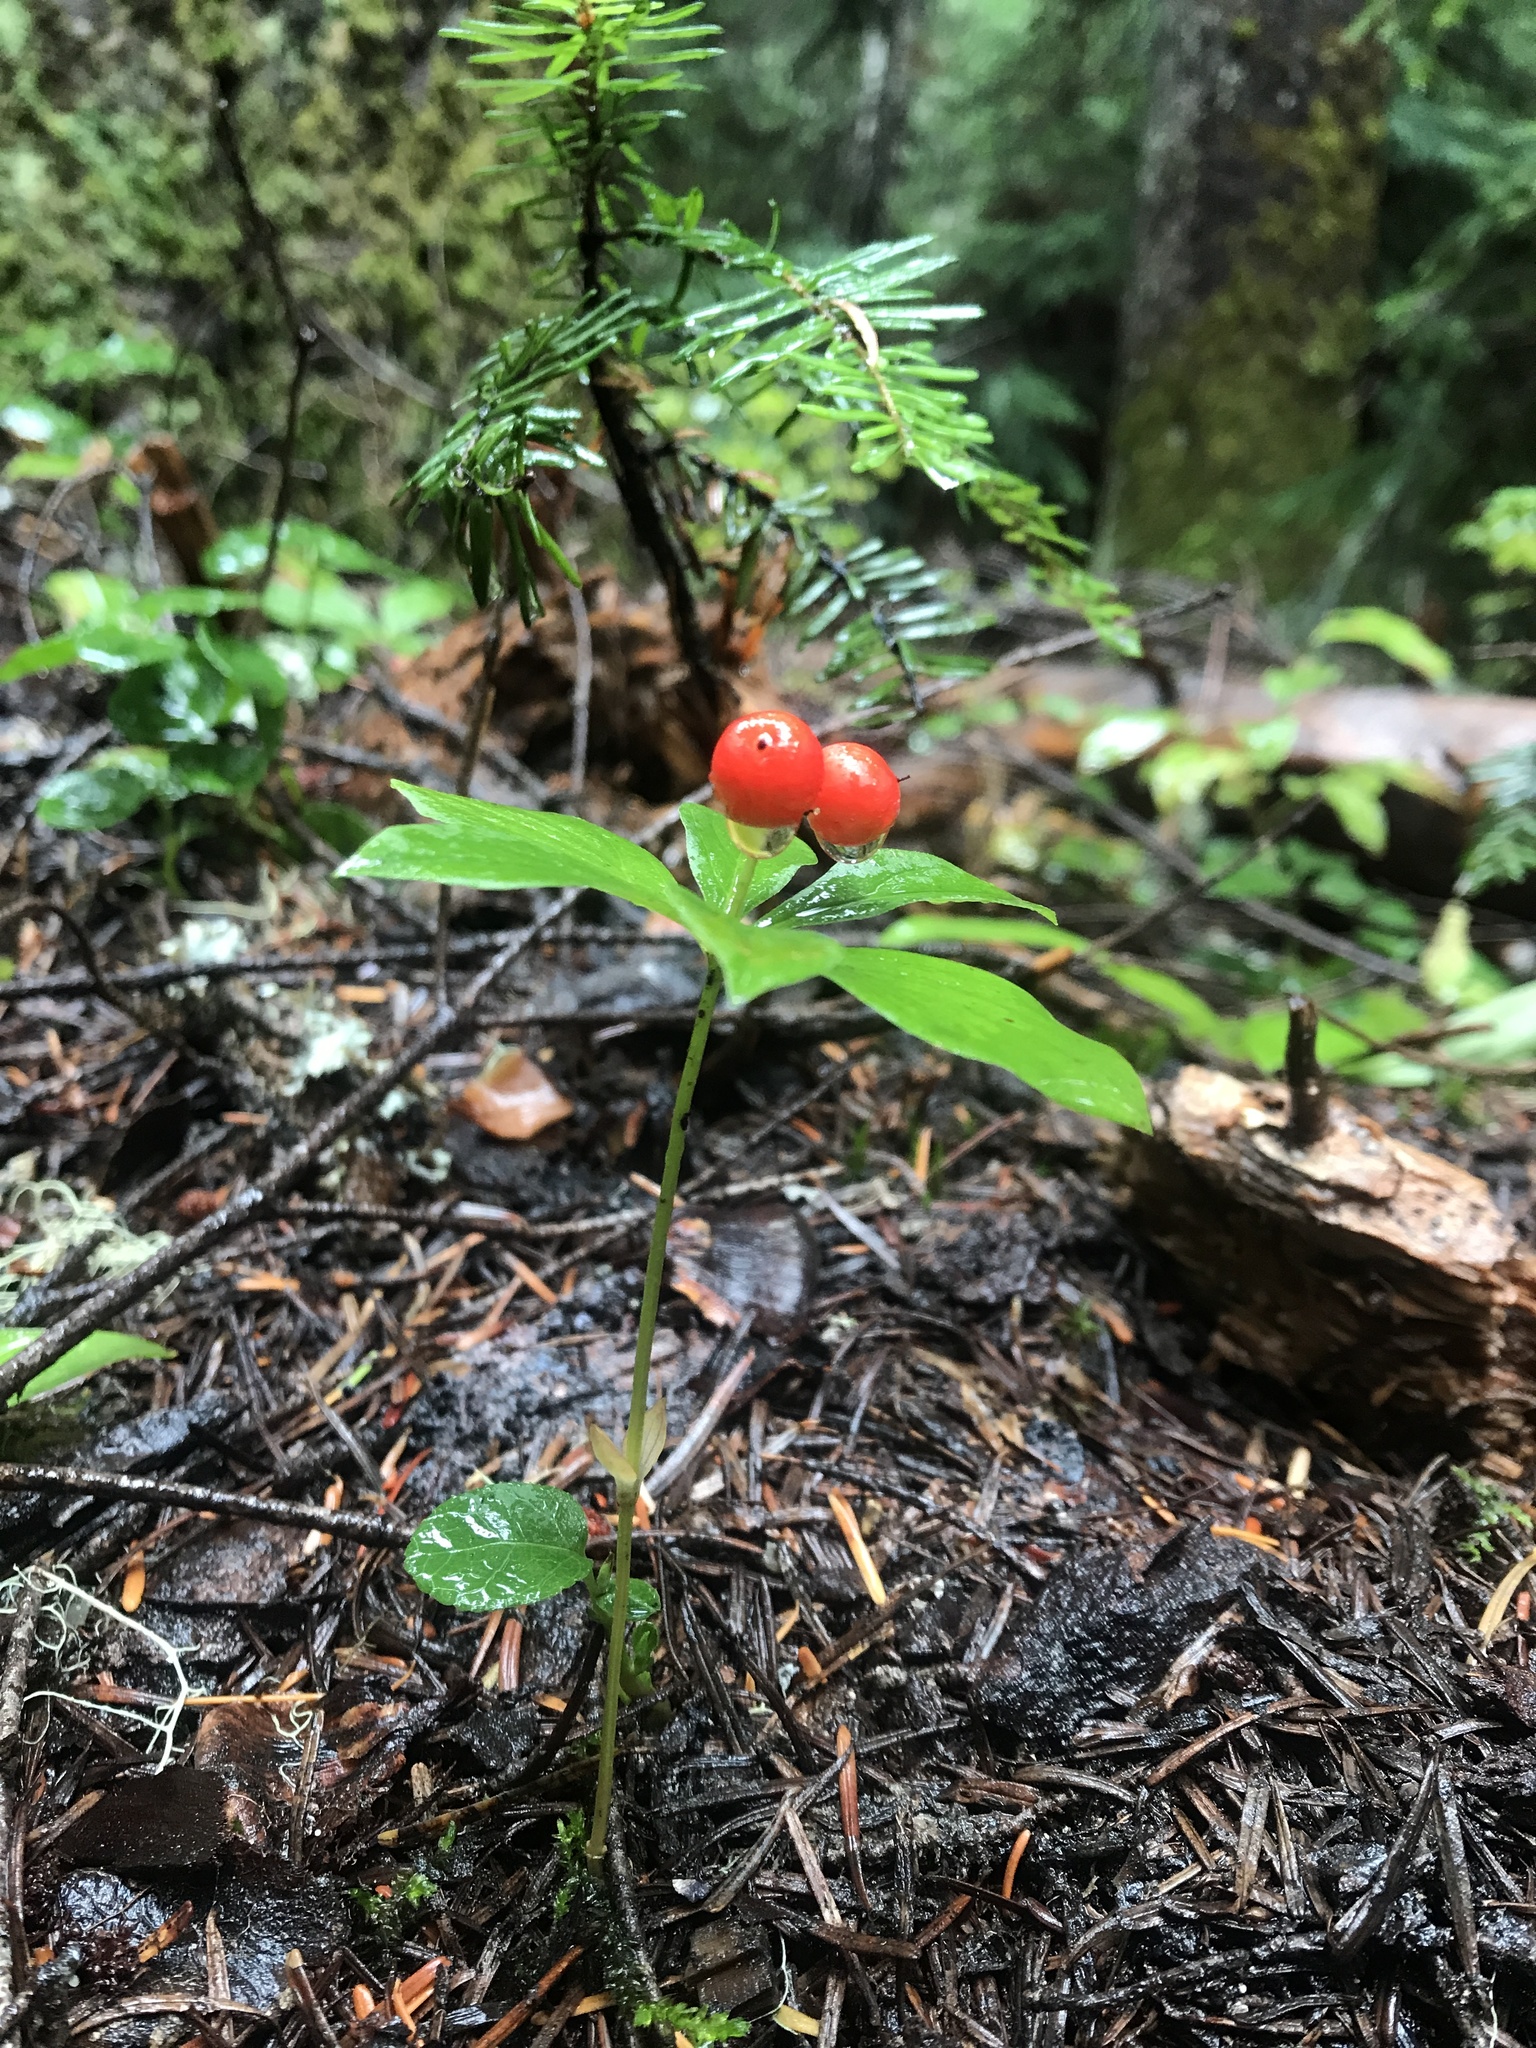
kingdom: Plantae
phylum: Tracheophyta
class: Magnoliopsida
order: Cornales
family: Cornaceae
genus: Cornus
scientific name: Cornus unalaschkensis
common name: Alaska bunchberry
